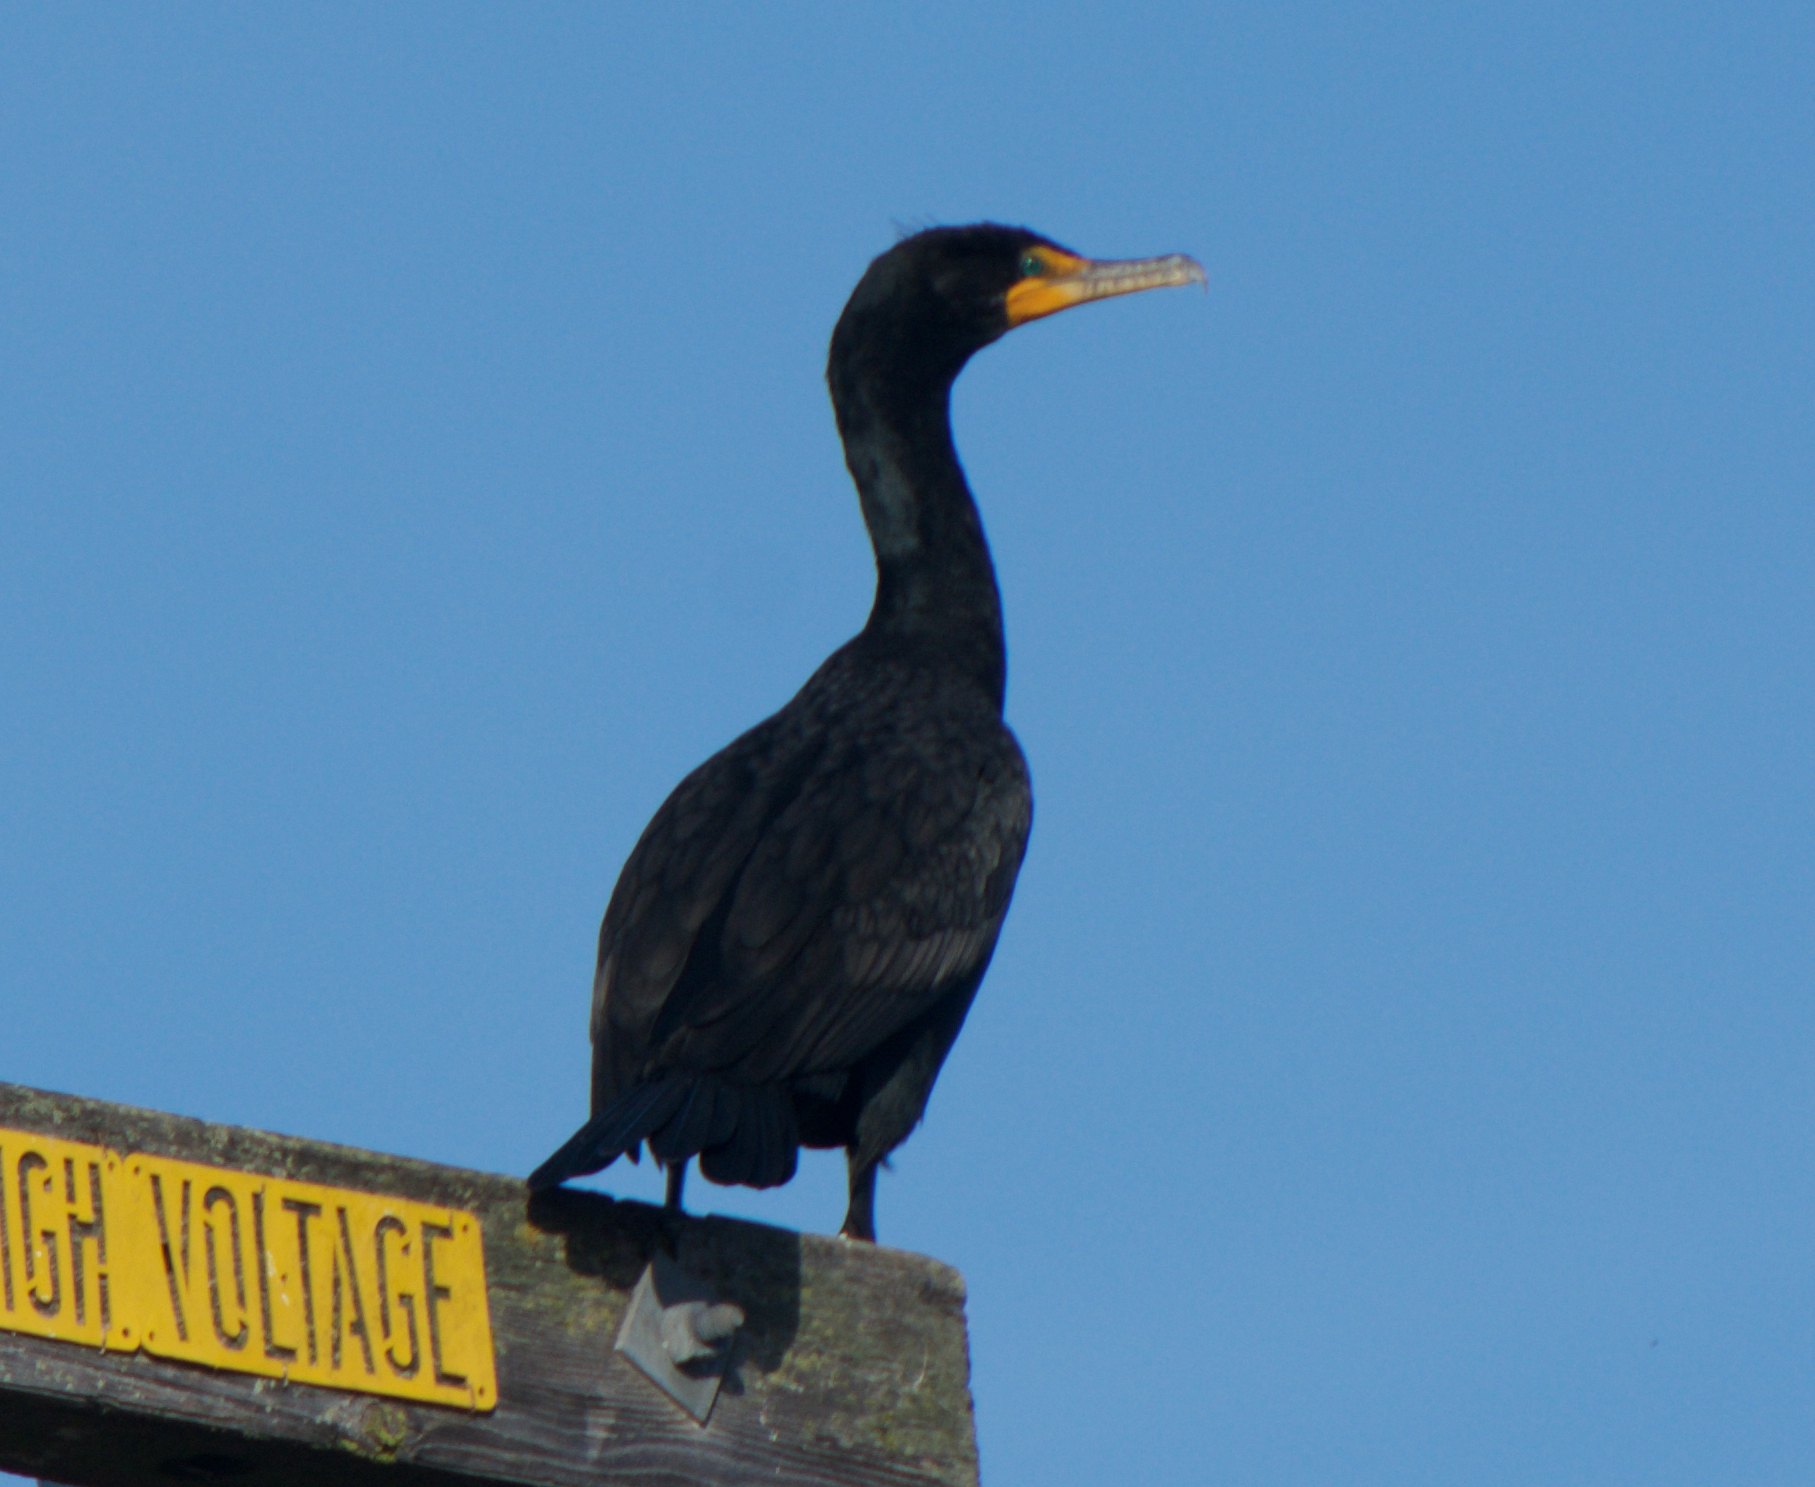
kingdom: Animalia
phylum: Chordata
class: Aves
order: Suliformes
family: Phalacrocoracidae
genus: Phalacrocorax
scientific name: Phalacrocorax auritus
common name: Double-crested cormorant
